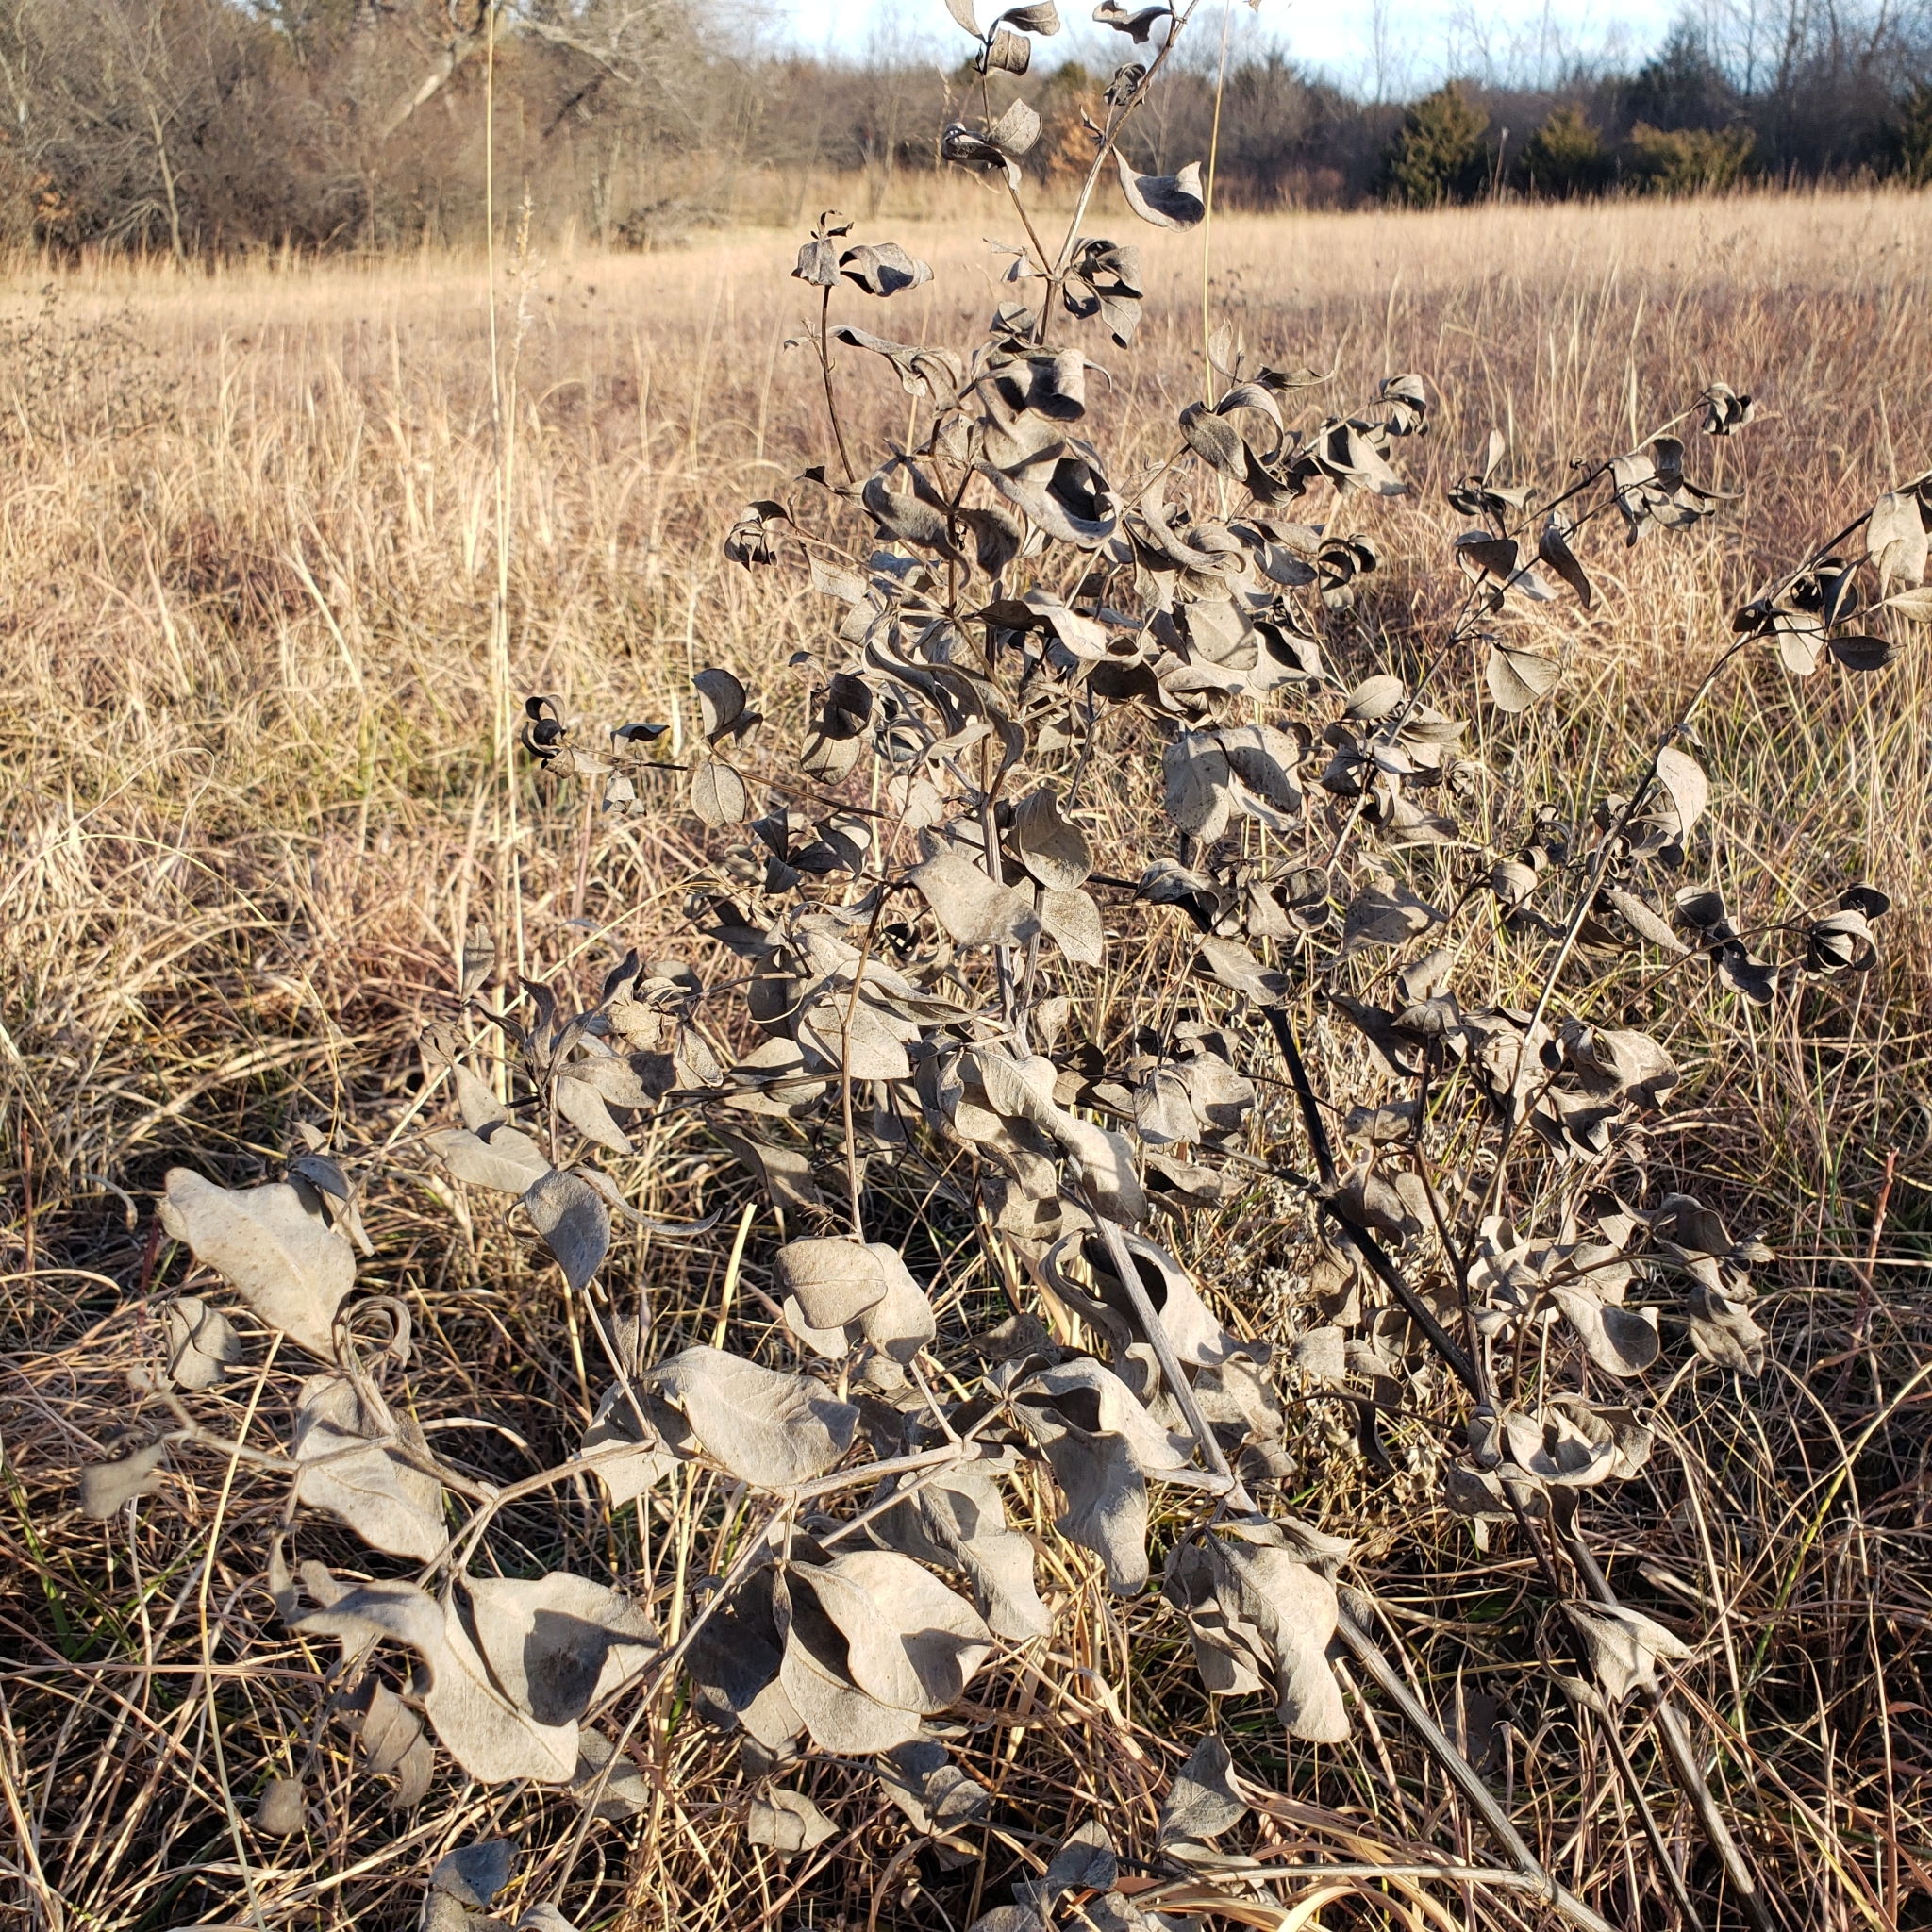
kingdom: Plantae
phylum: Tracheophyta
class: Magnoliopsida
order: Fabales
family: Fabaceae
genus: Baptisia
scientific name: Baptisia australis
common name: Blue false indigo
